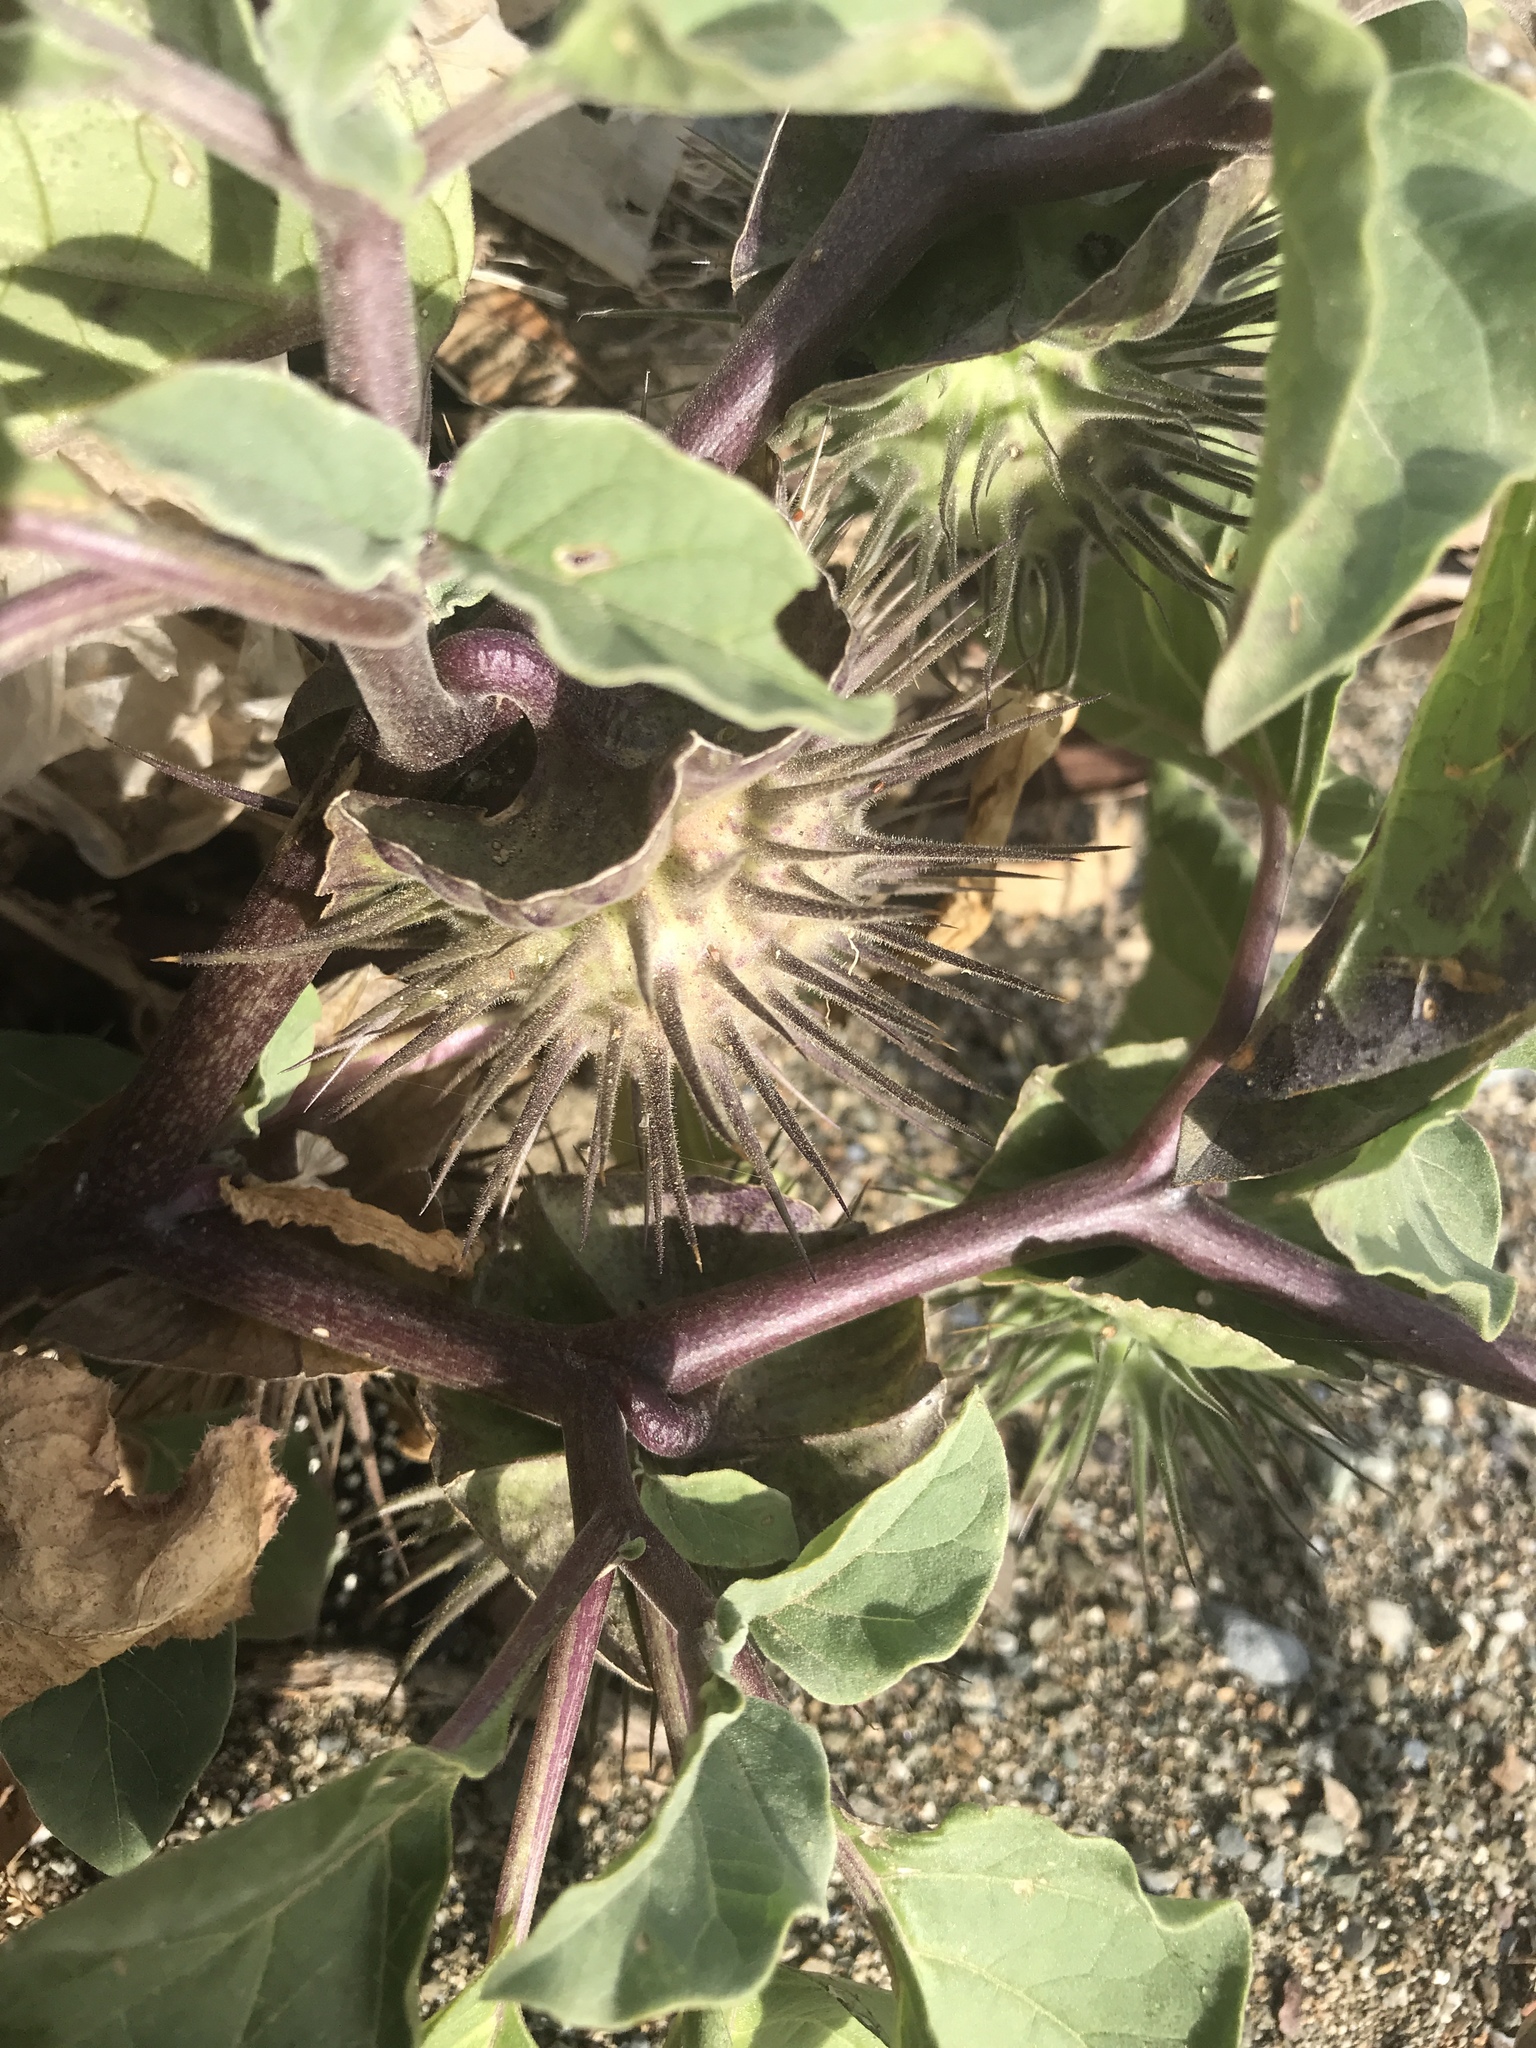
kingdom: Plantae
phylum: Tracheophyta
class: Magnoliopsida
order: Solanales
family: Solanaceae
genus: Datura
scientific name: Datura discolor
